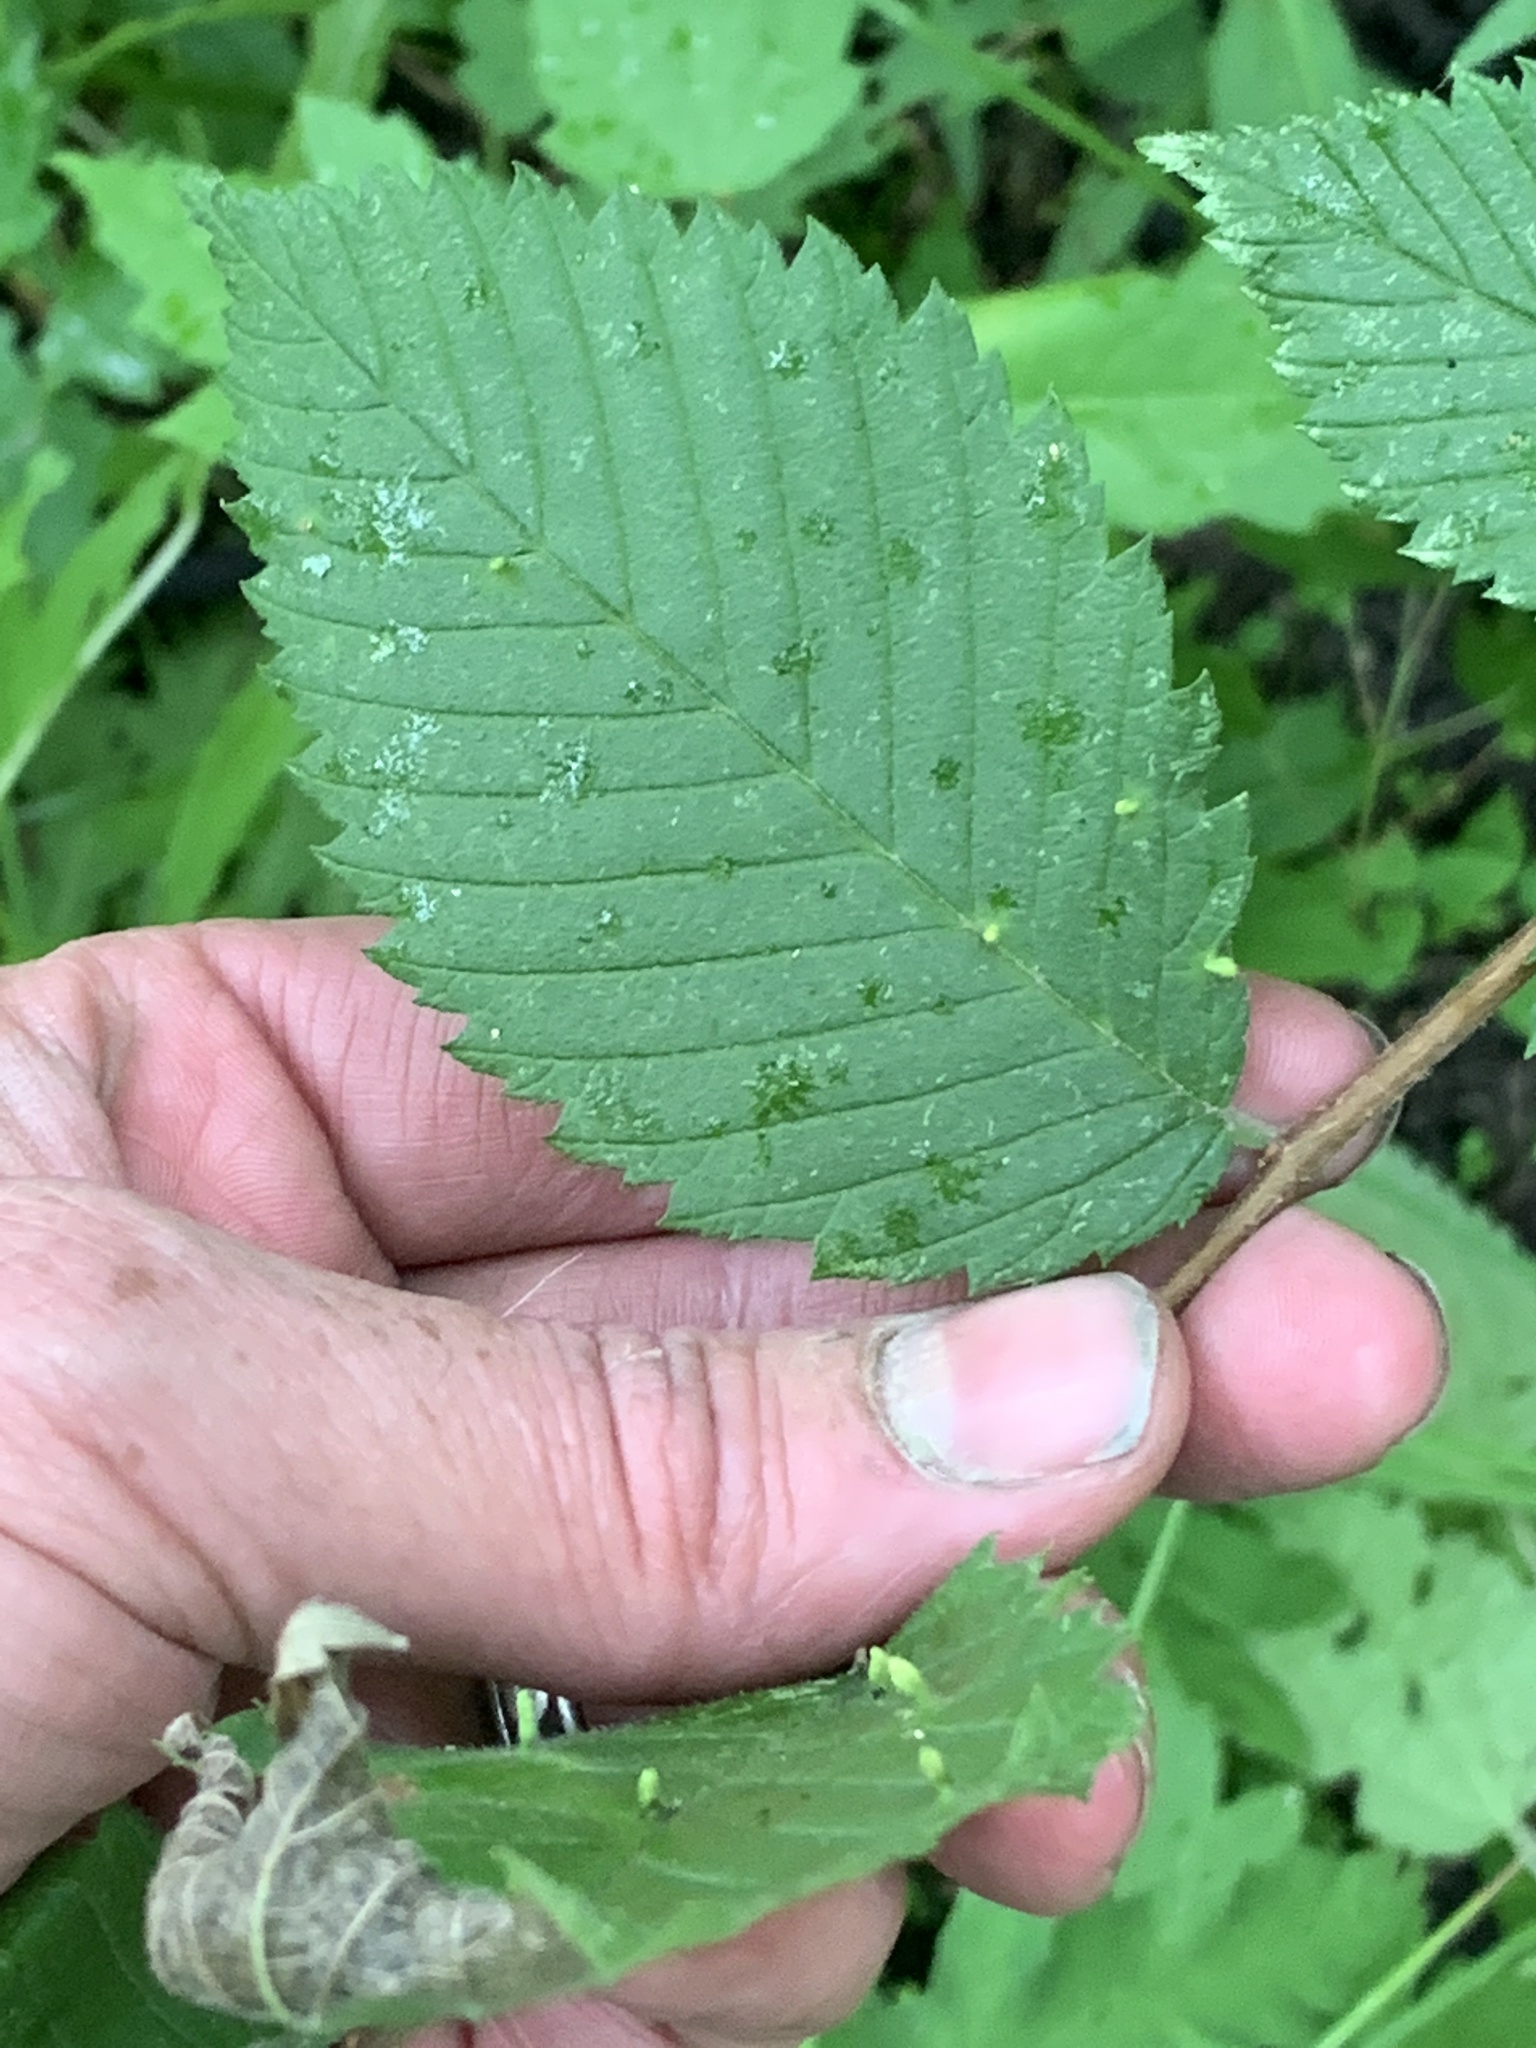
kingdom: Plantae
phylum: Tracheophyta
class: Magnoliopsida
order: Rosales
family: Ulmaceae
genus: Ulmus
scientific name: Ulmus americana
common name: American elm
